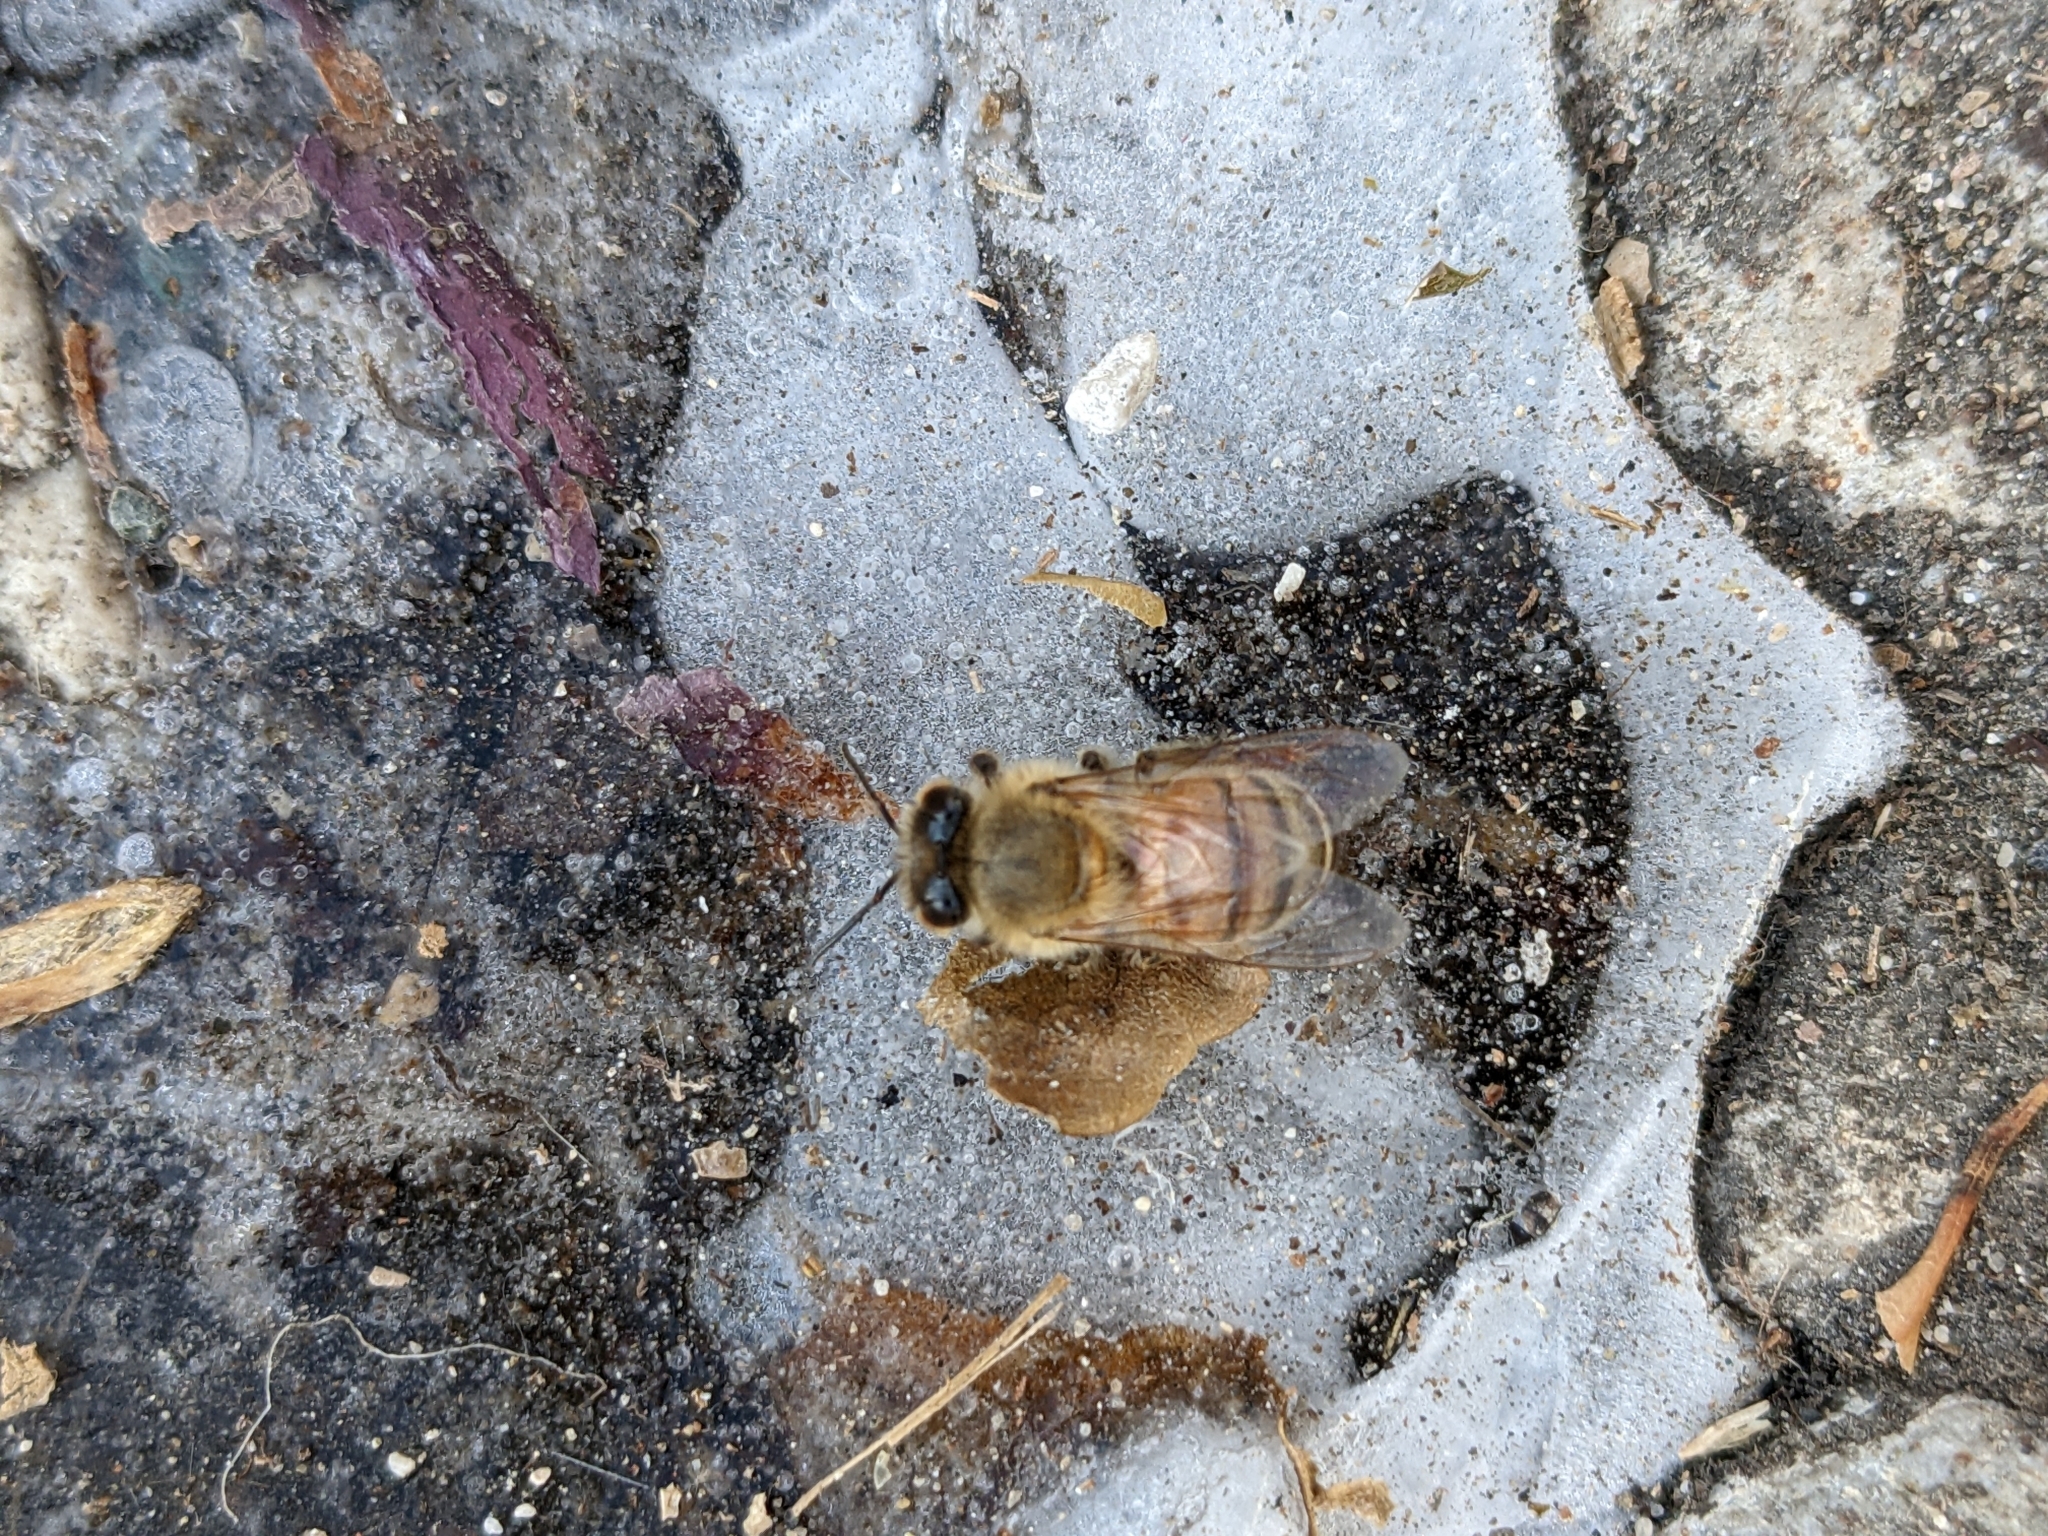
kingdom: Animalia
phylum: Arthropoda
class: Insecta
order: Hymenoptera
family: Apidae
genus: Apis
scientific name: Apis mellifera
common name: Honey bee
